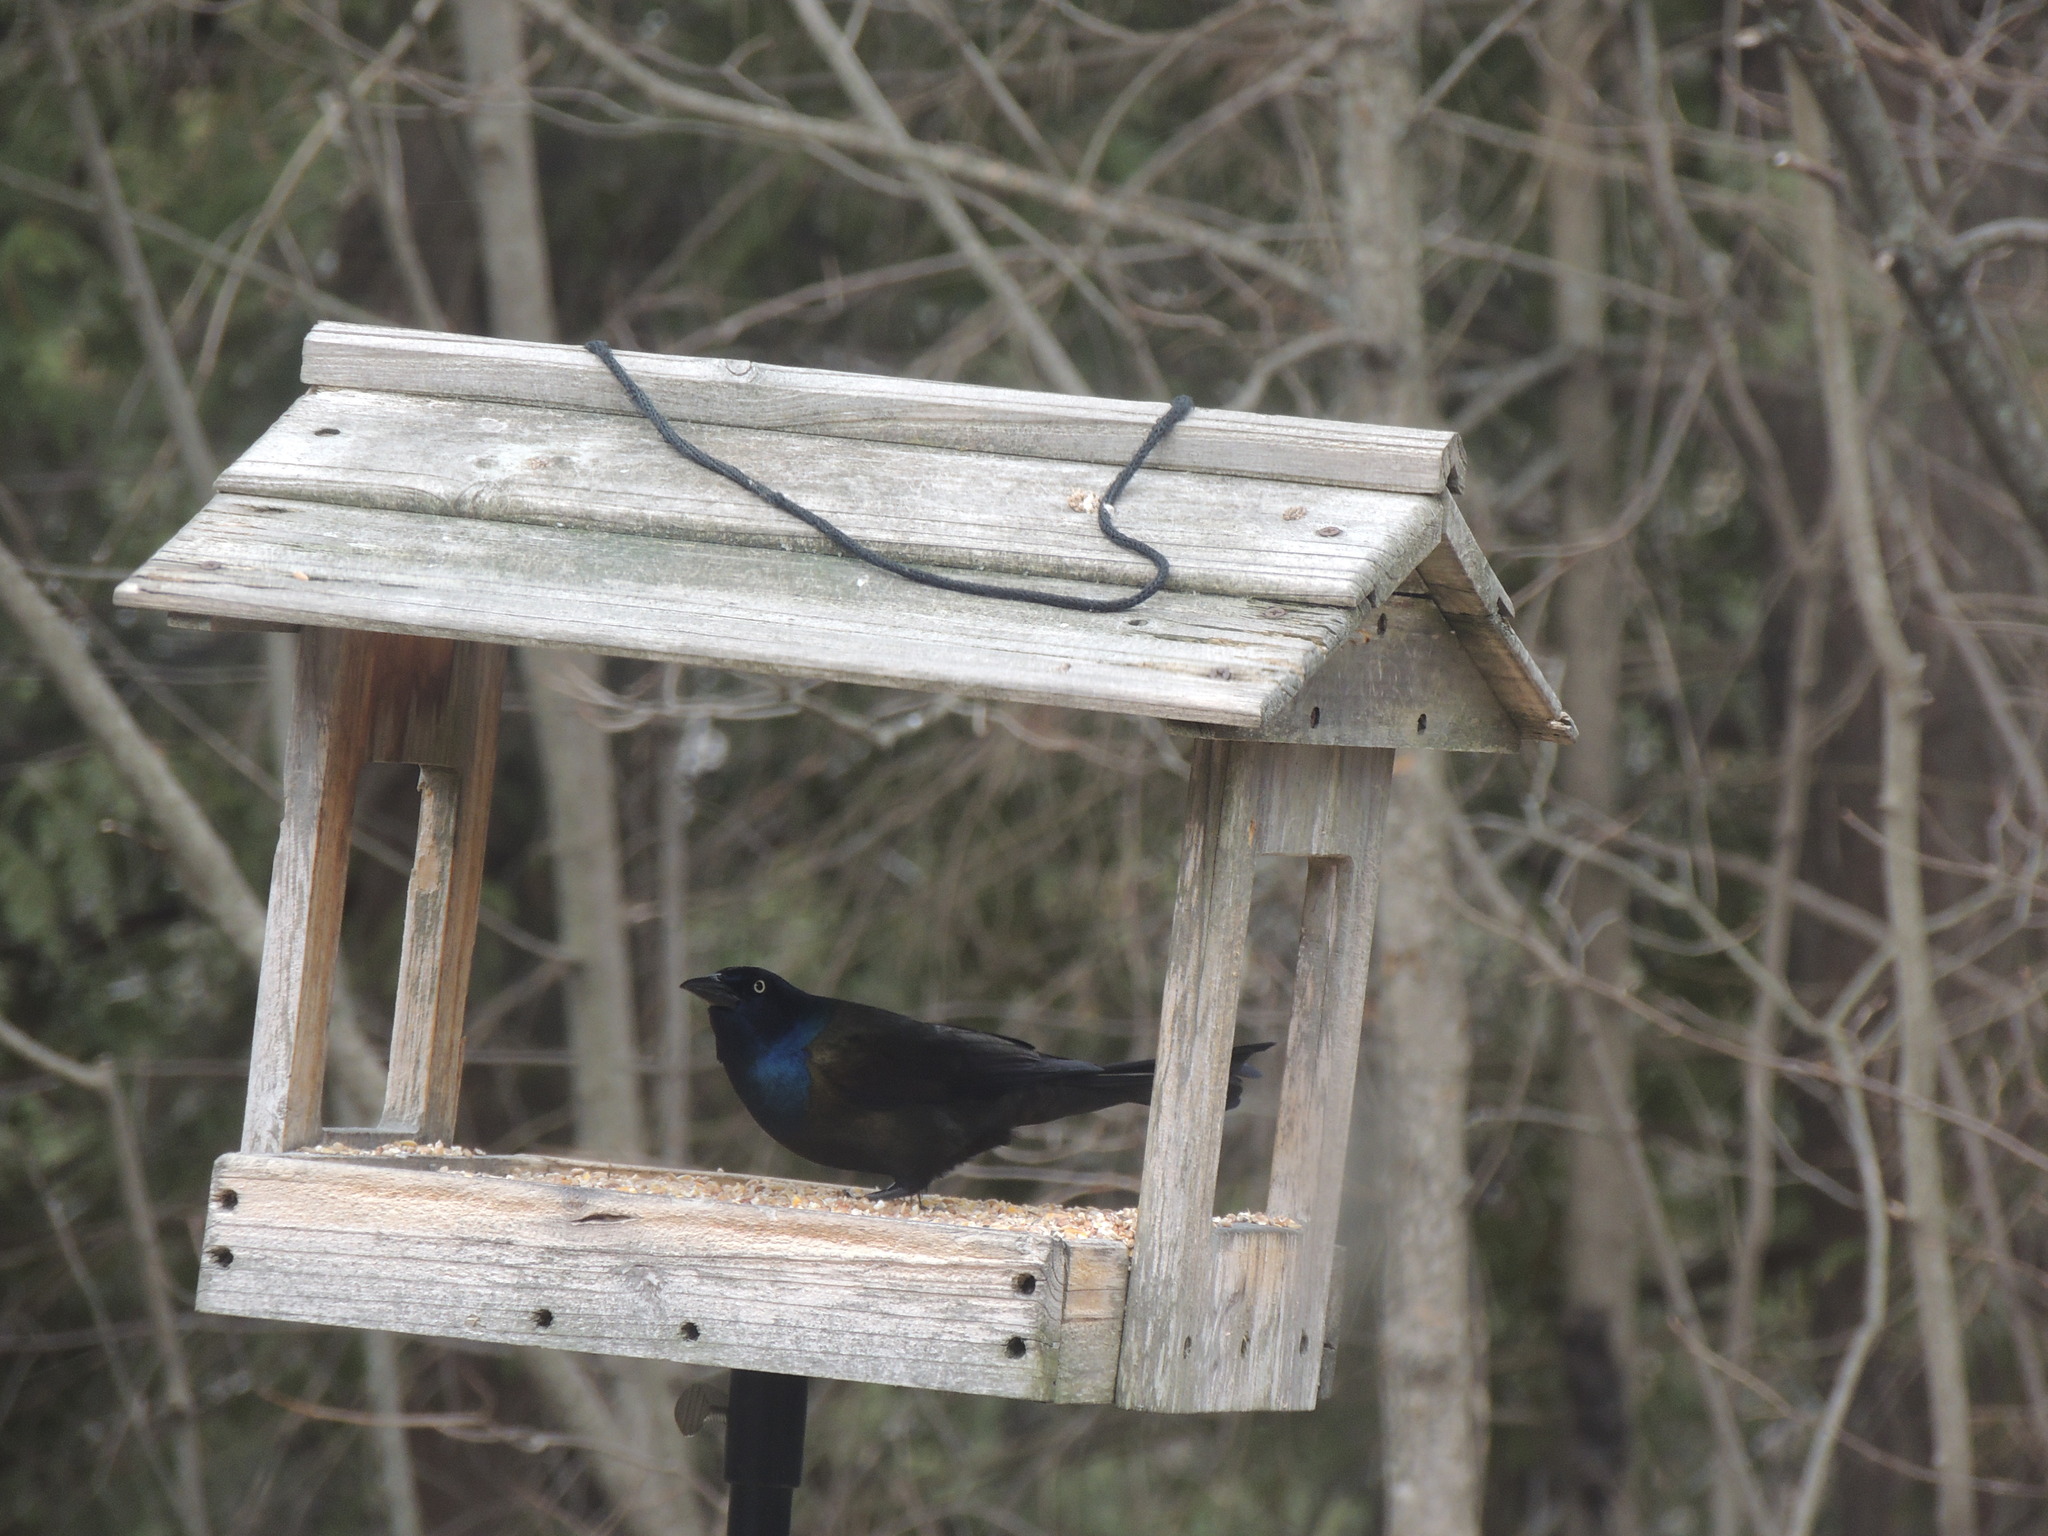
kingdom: Animalia
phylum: Chordata
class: Aves
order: Passeriformes
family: Icteridae
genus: Quiscalus
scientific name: Quiscalus quiscula
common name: Common grackle
